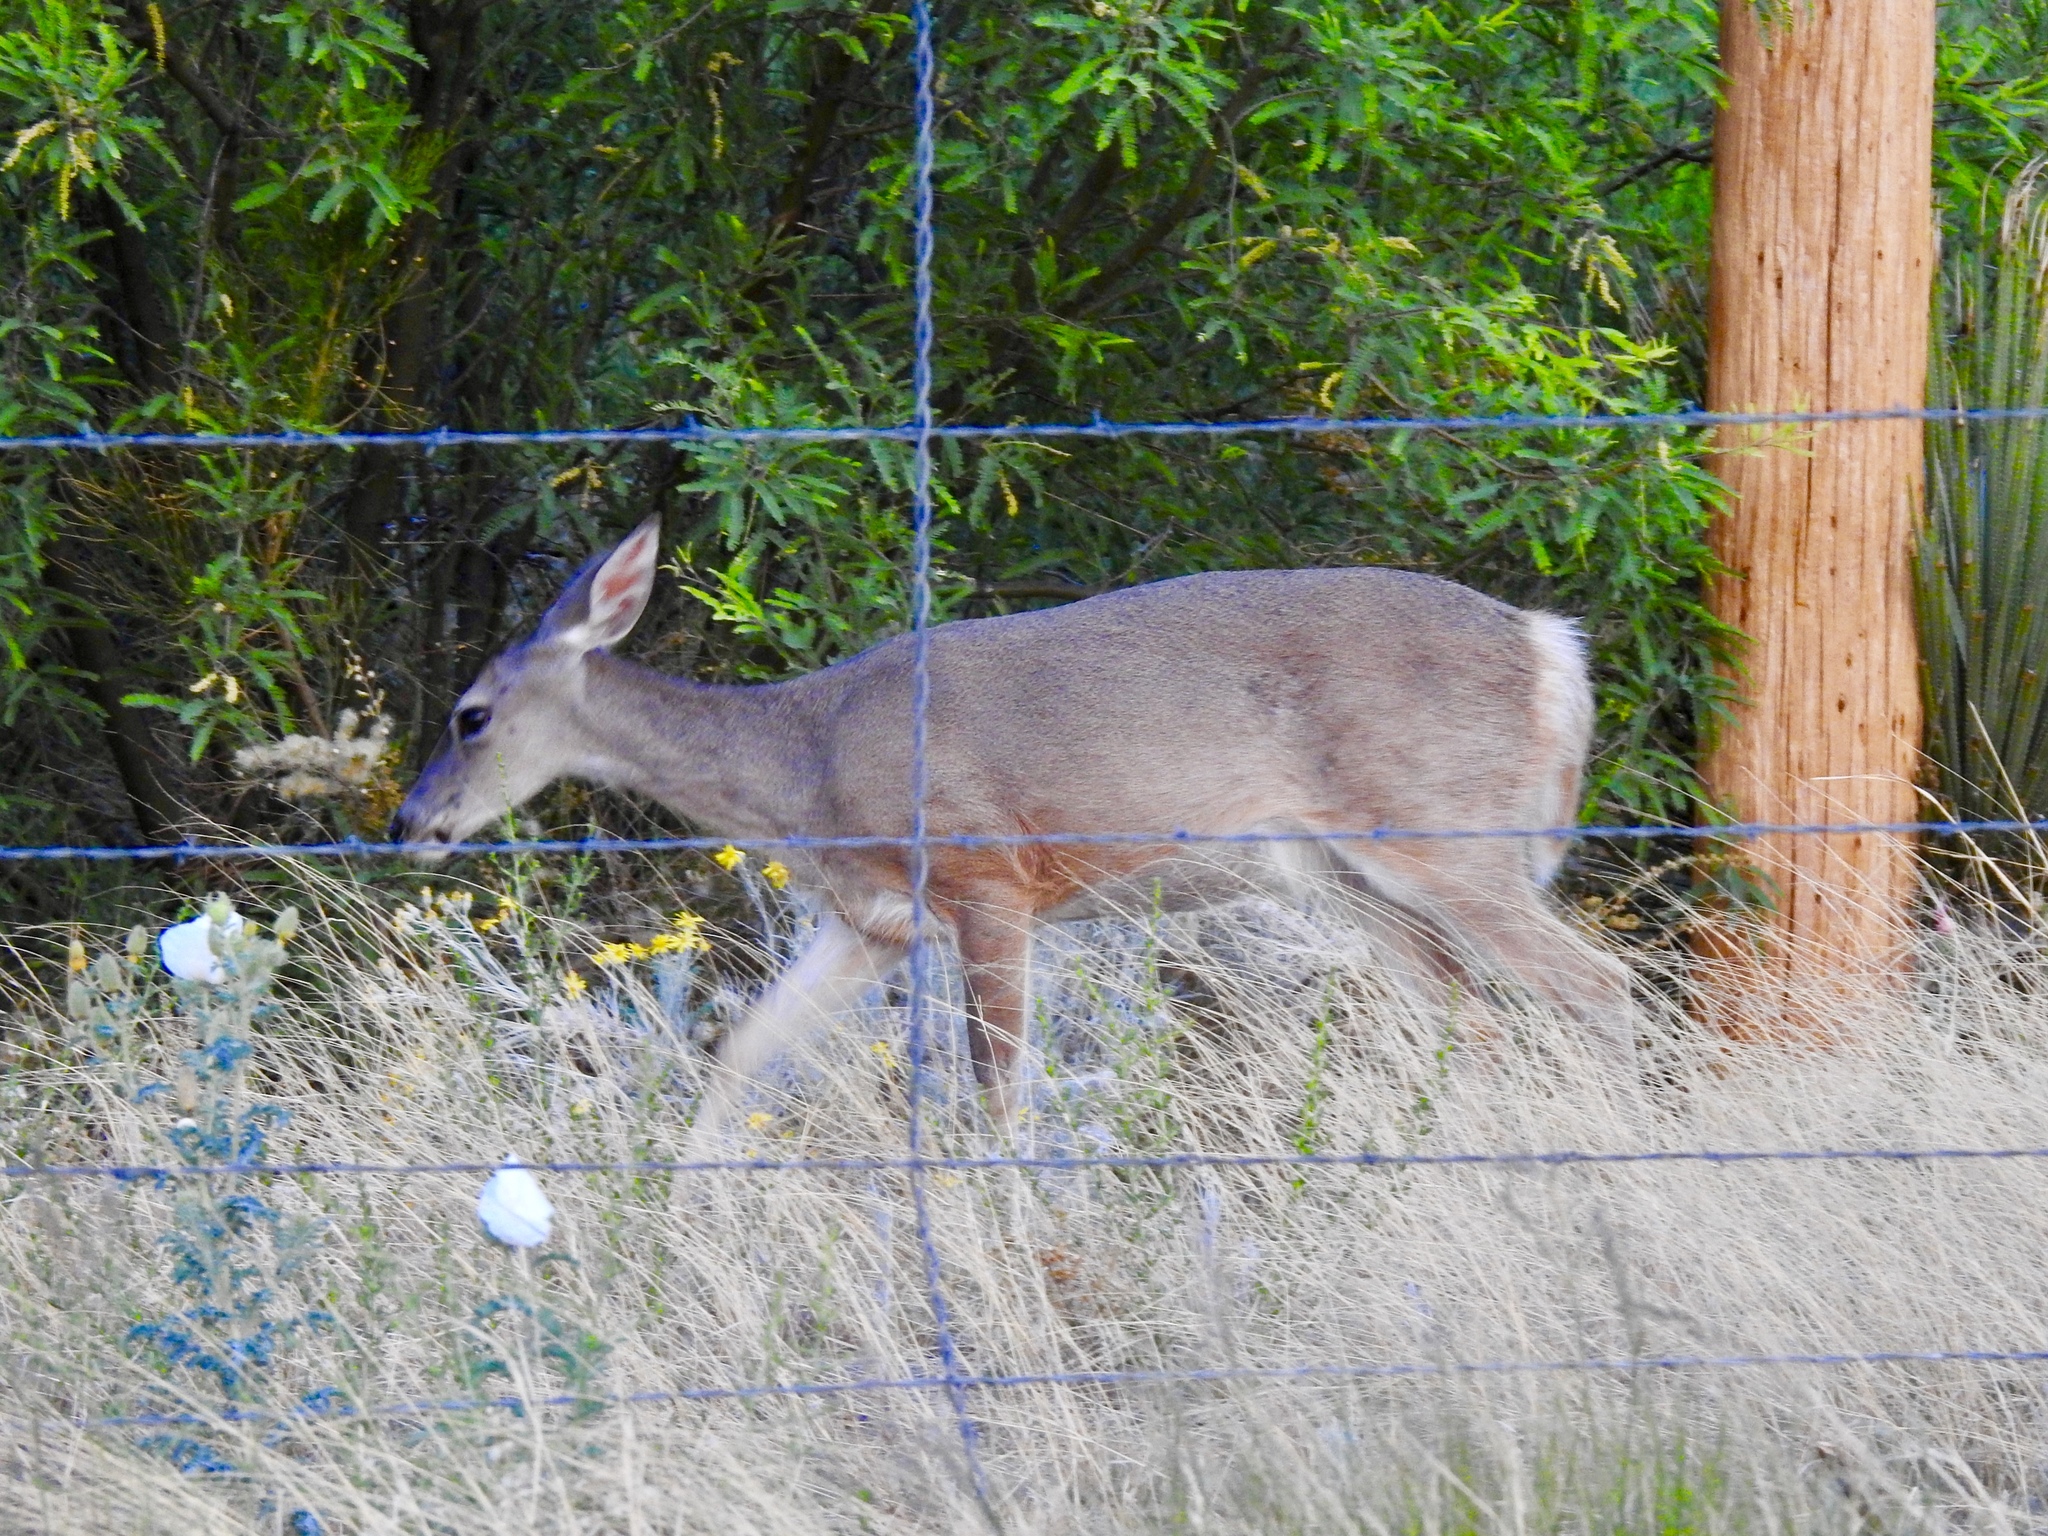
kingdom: Animalia
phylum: Chordata
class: Mammalia
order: Artiodactyla
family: Cervidae
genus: Odocoileus
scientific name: Odocoileus virginianus
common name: White-tailed deer
